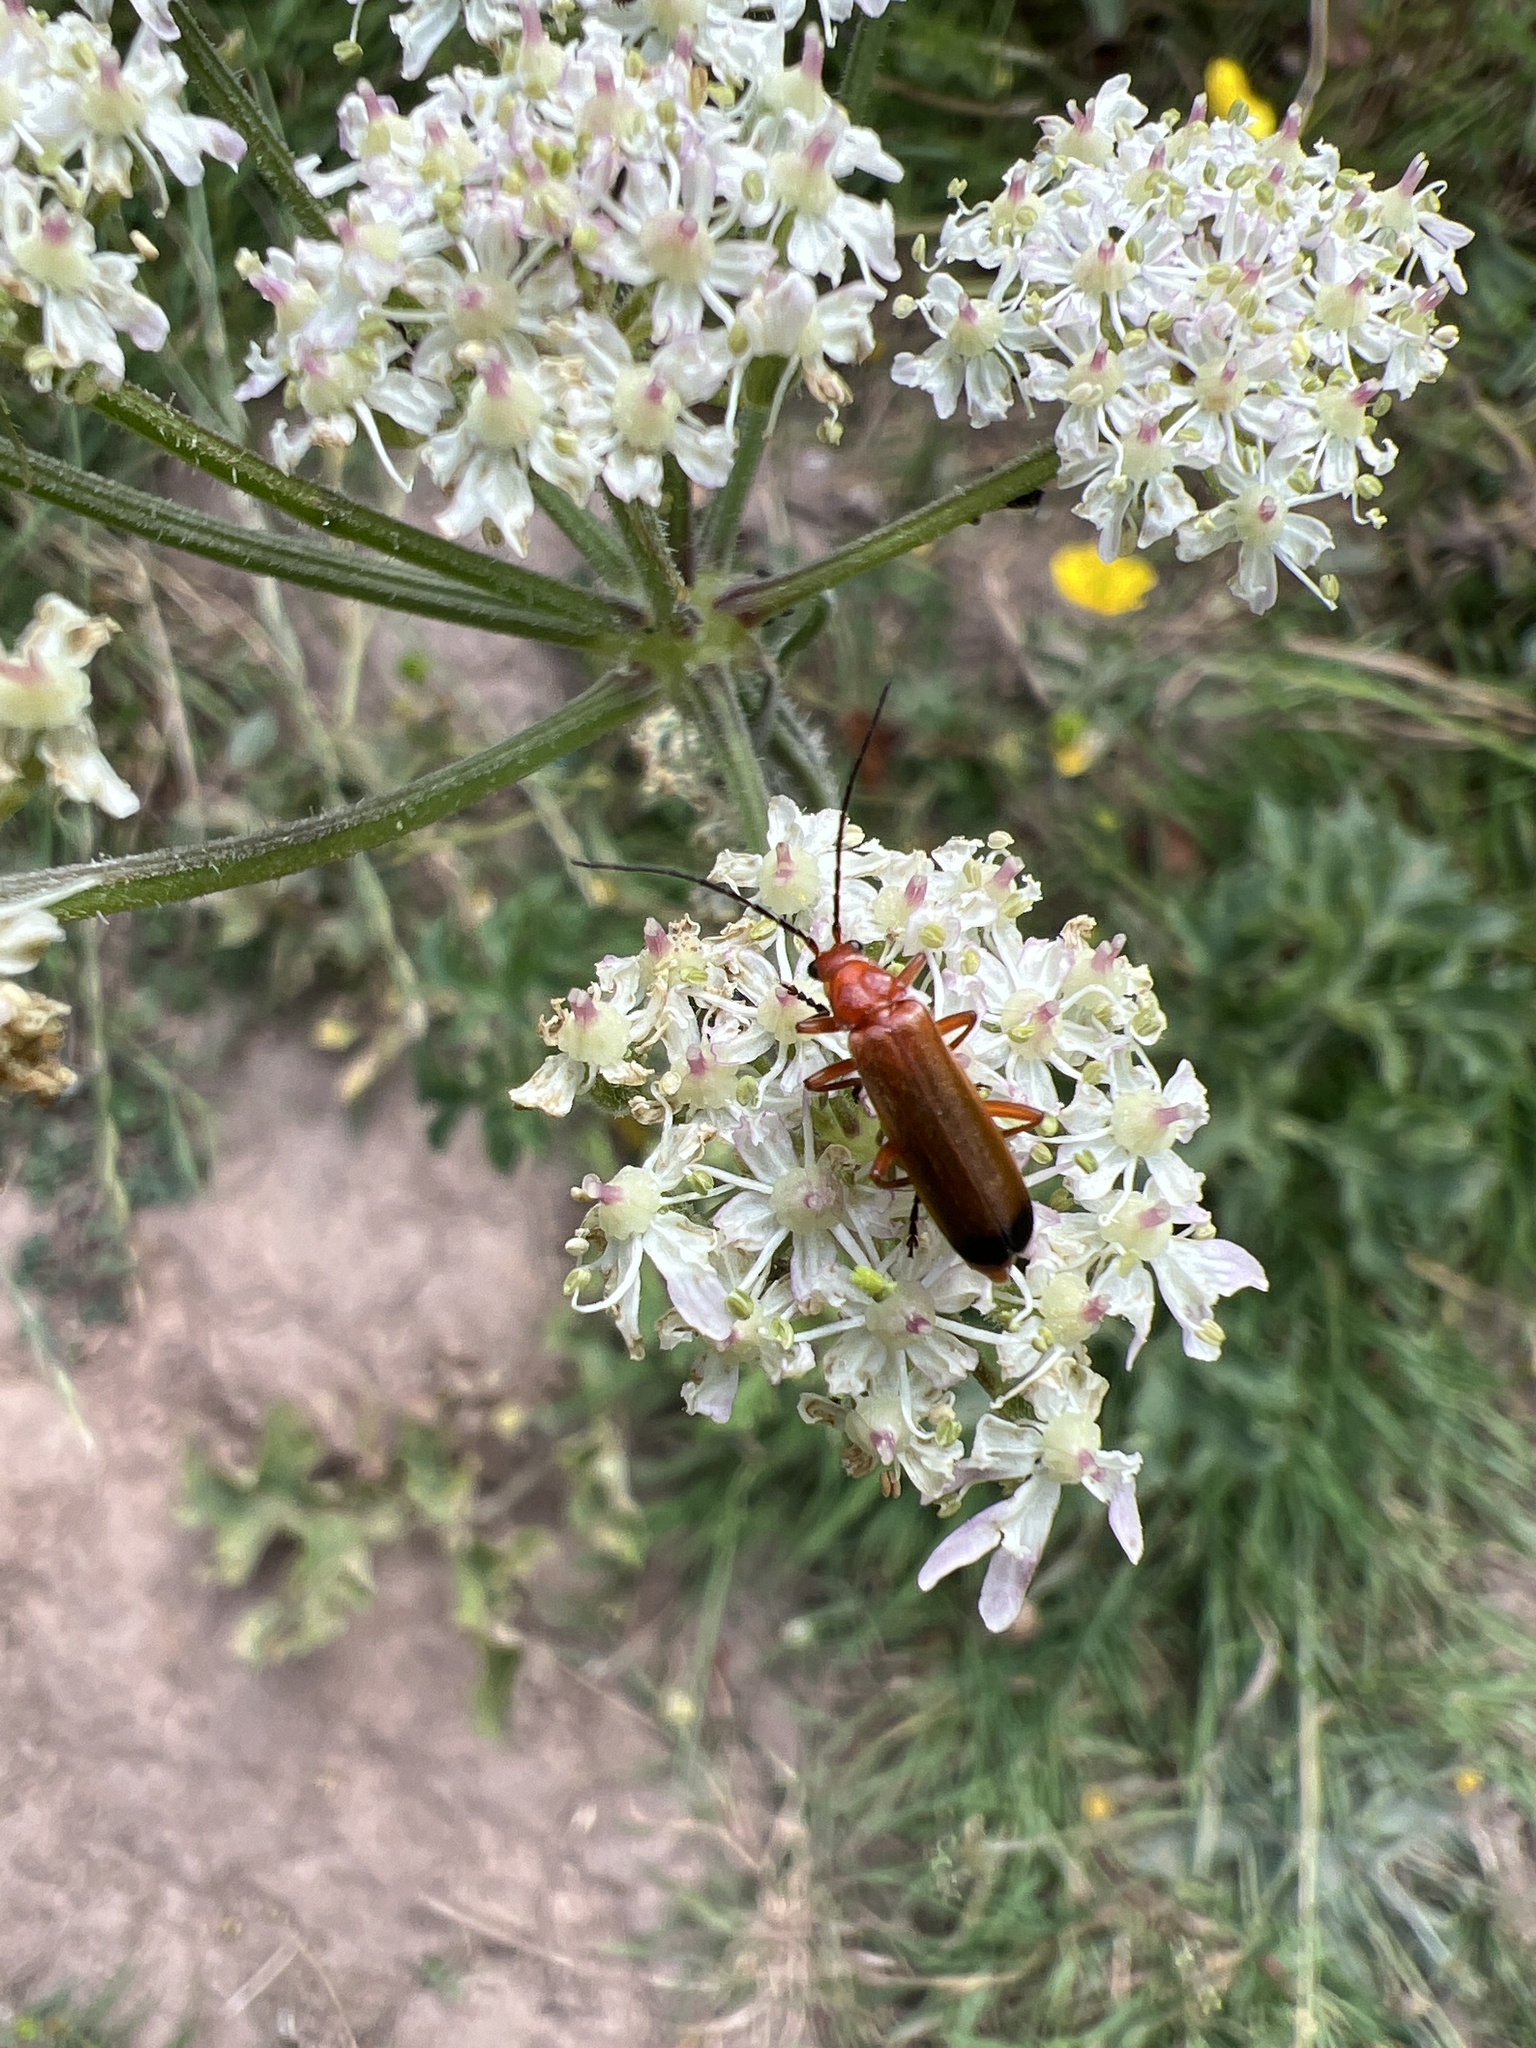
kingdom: Animalia
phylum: Arthropoda
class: Insecta
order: Coleoptera
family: Cantharidae
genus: Rhagonycha
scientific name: Rhagonycha fulva
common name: Common red soldier beetle
